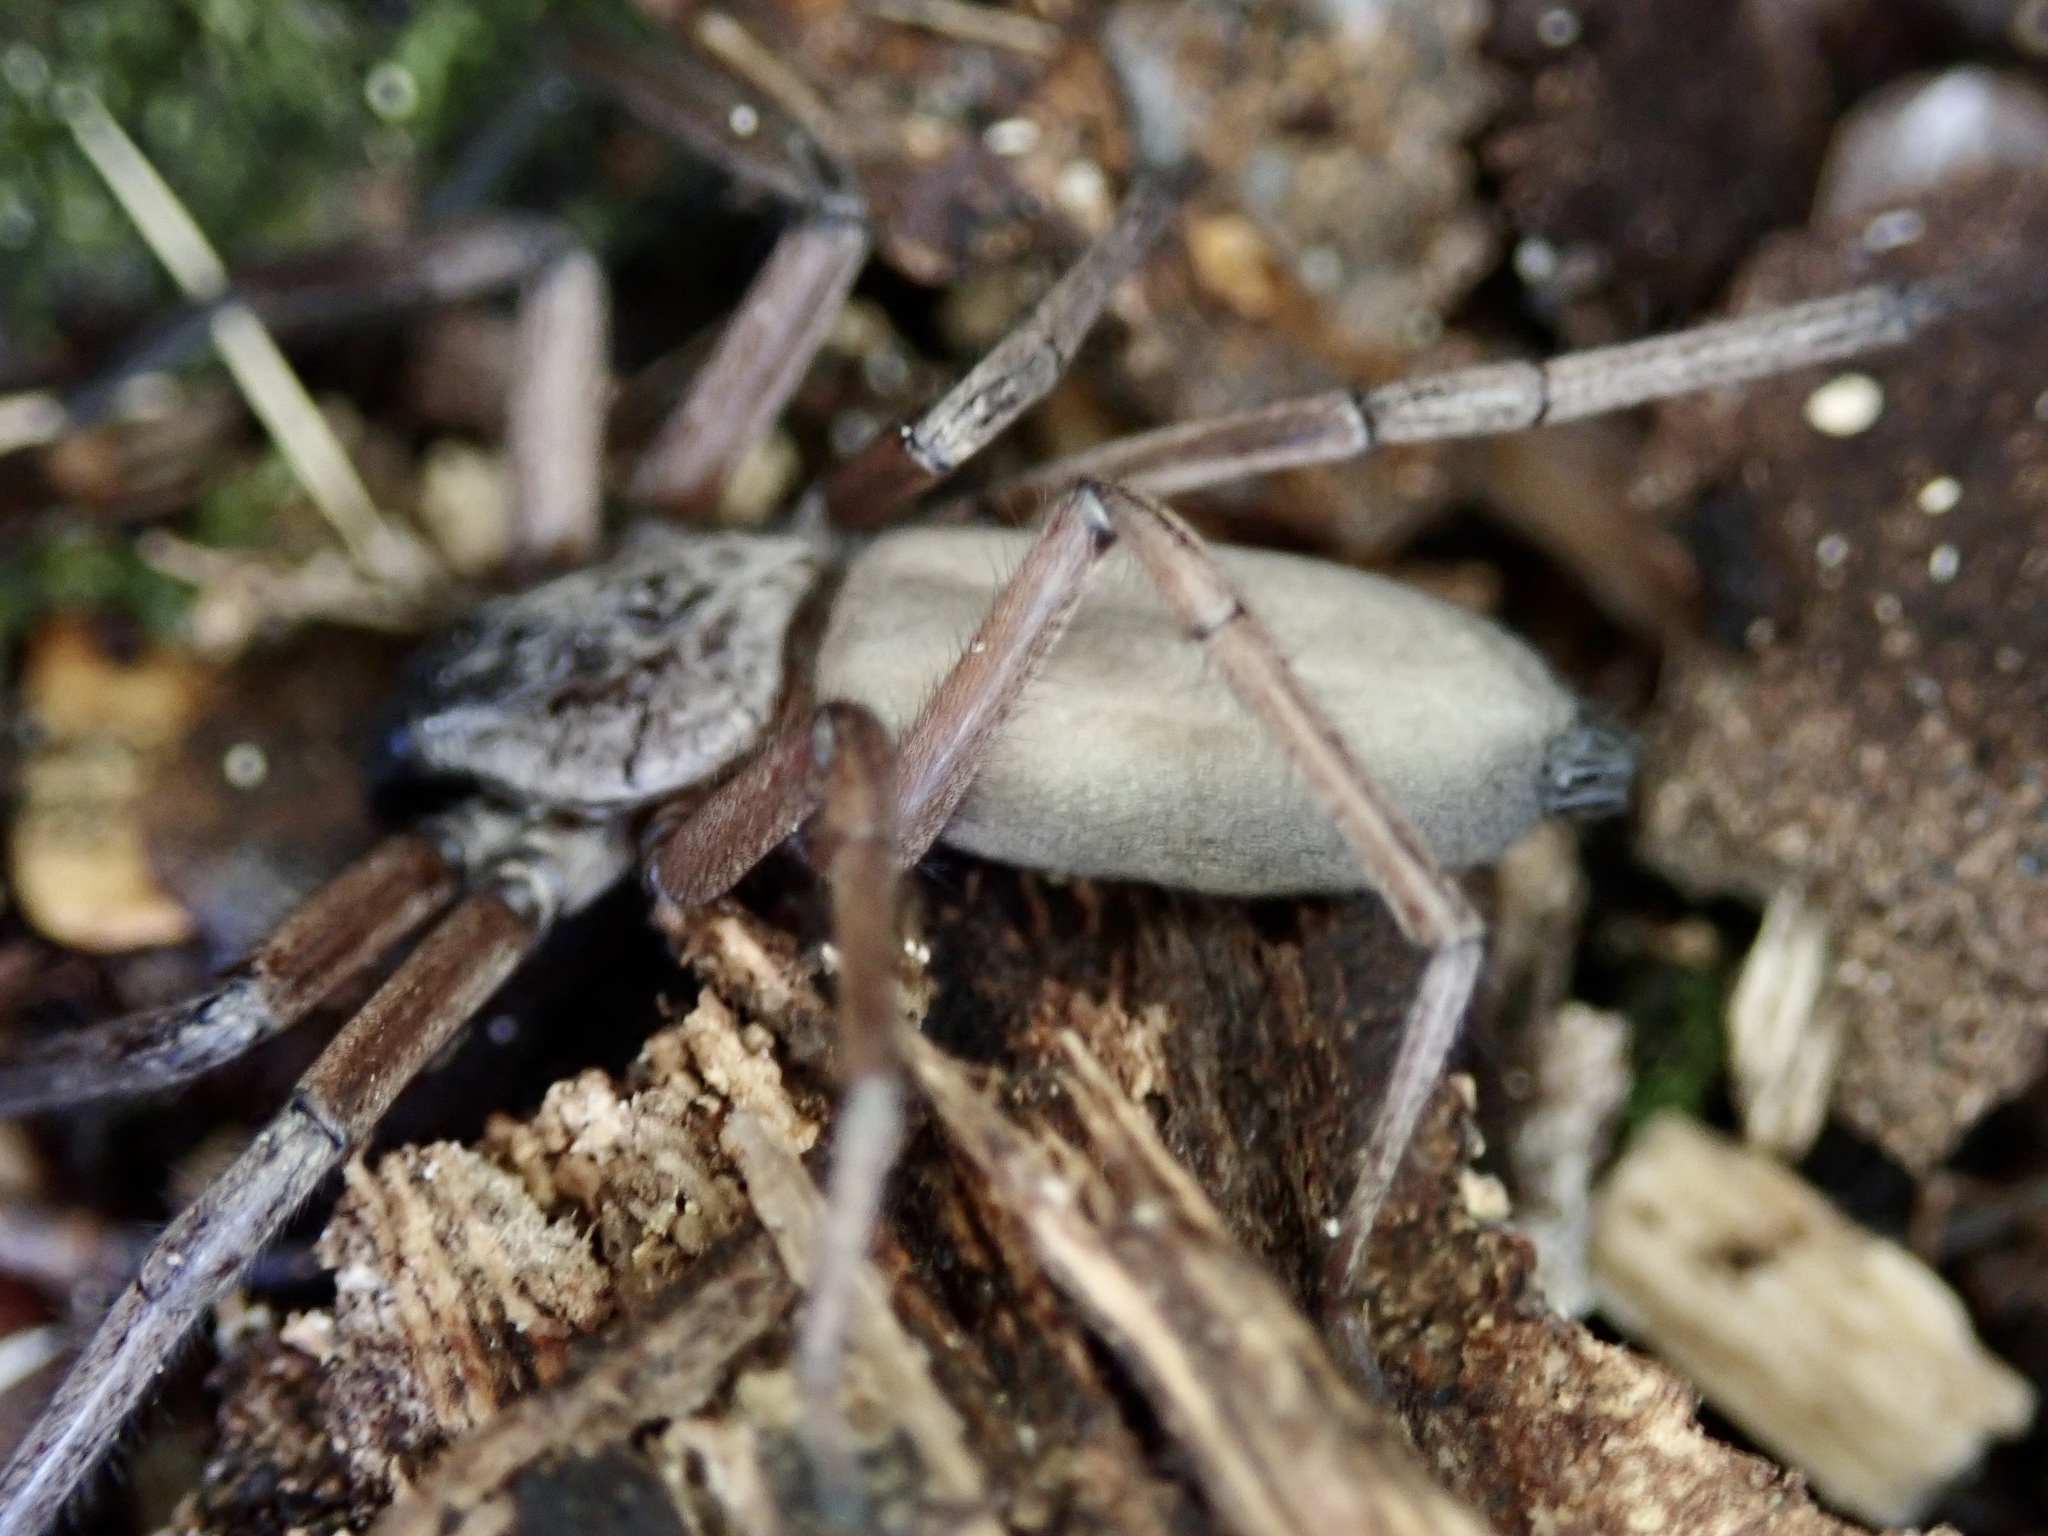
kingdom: Animalia
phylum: Arthropoda
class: Arachnida
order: Araneae
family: Trochanteriidae
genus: Hemicloea
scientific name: Hemicloea rogenhoferi
